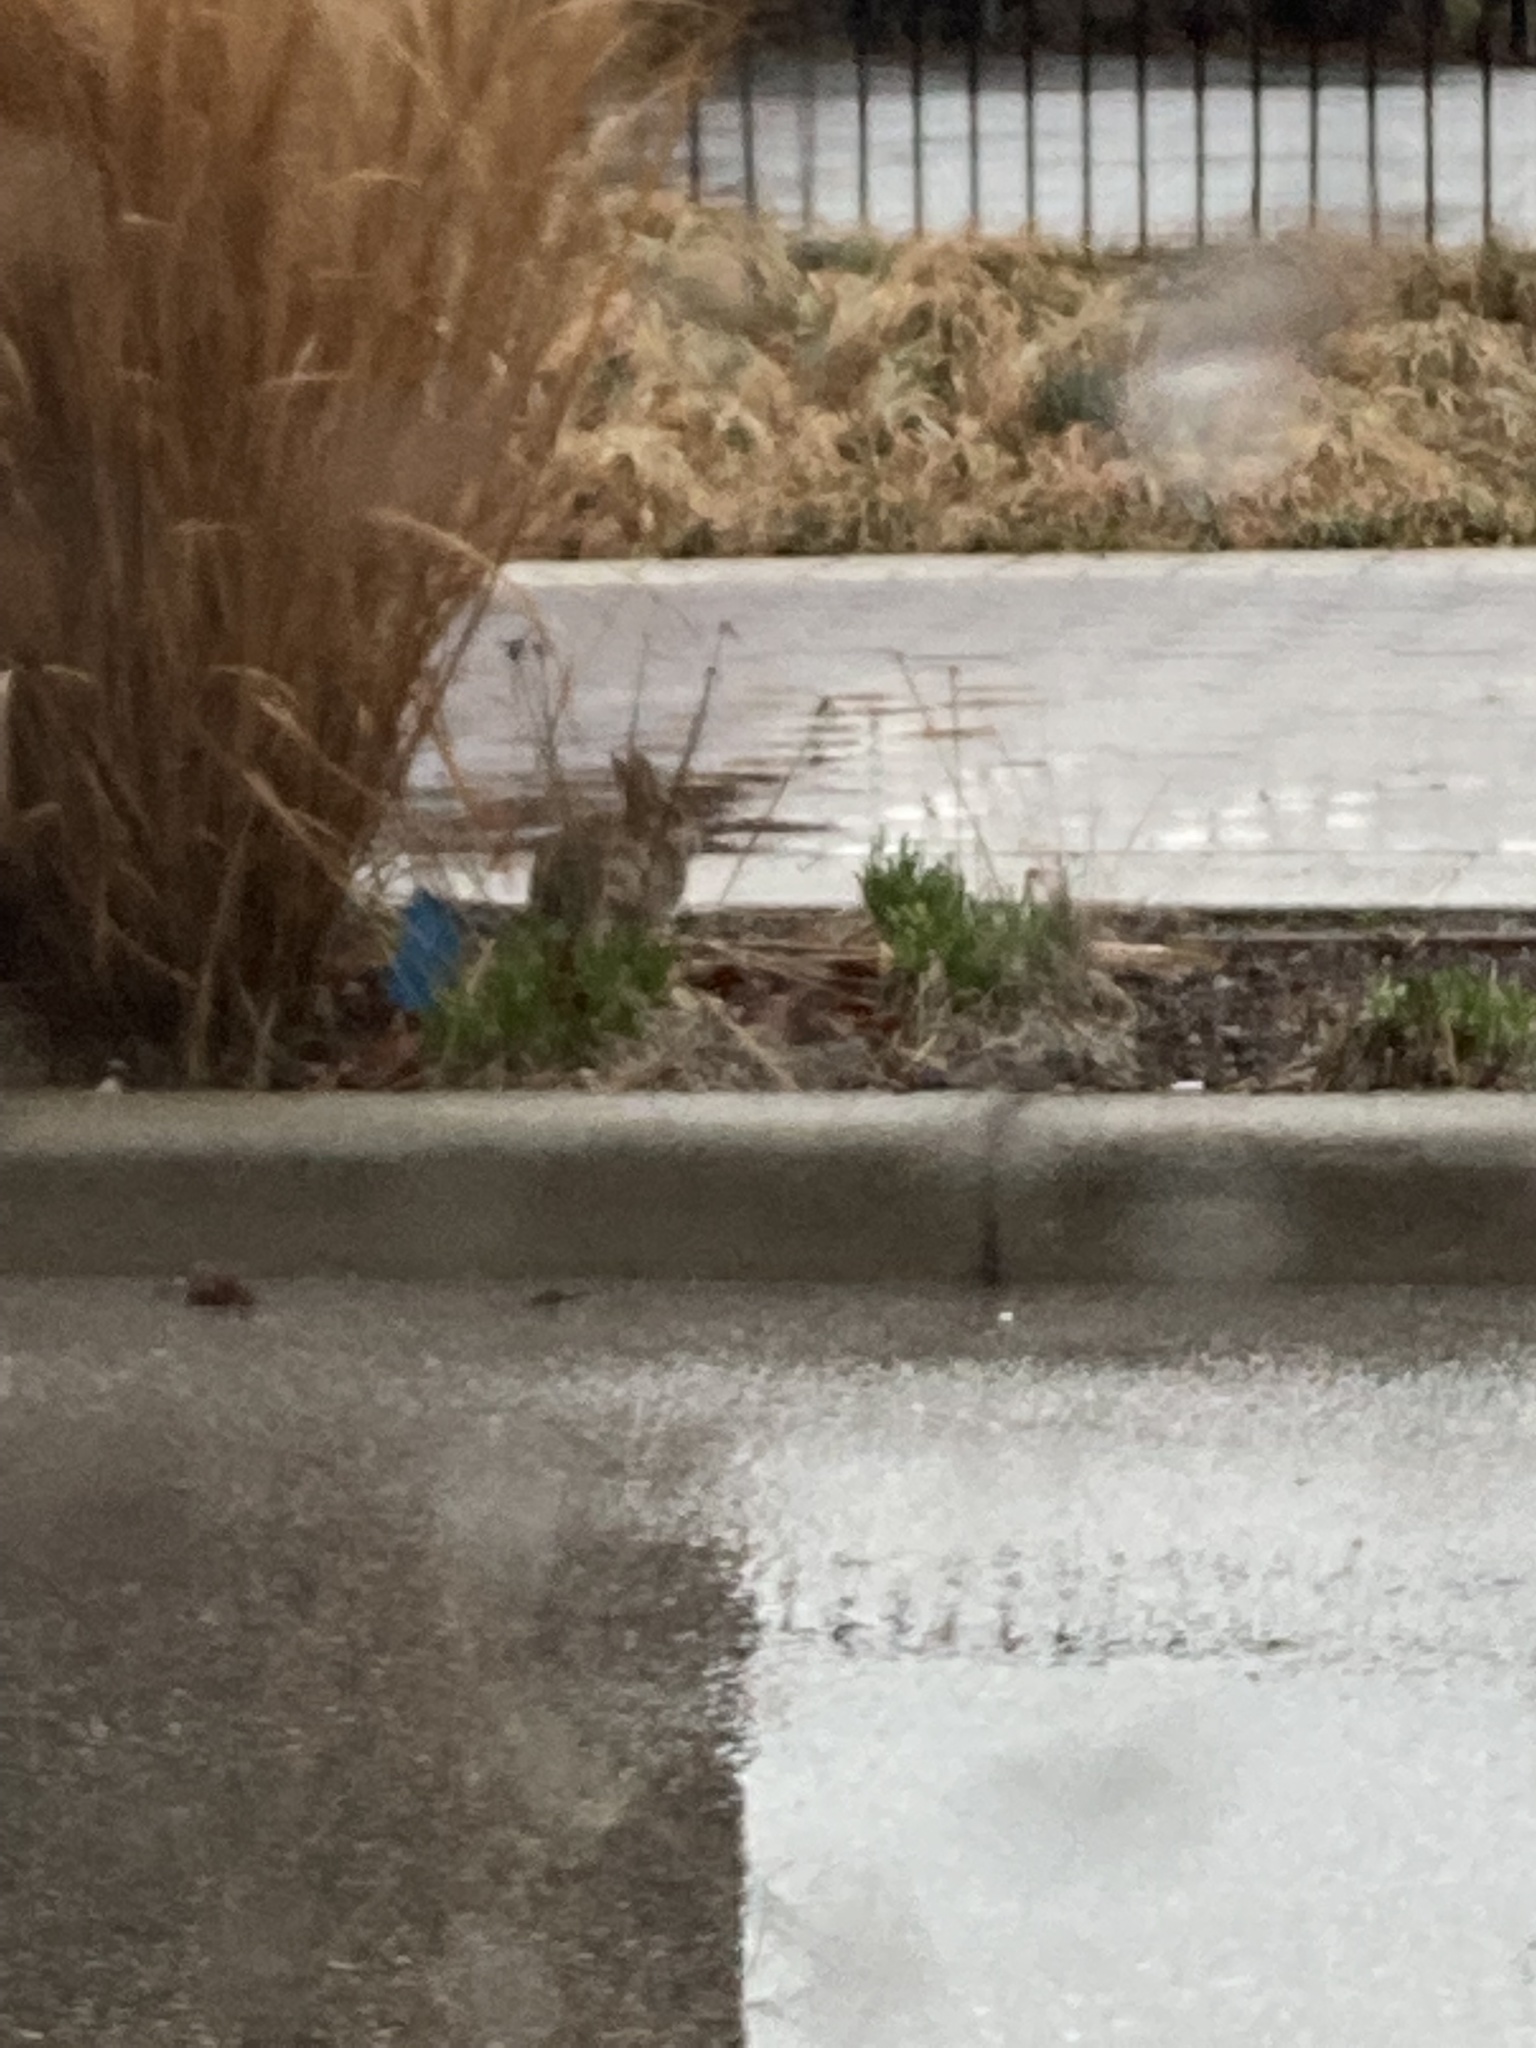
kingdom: Animalia
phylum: Chordata
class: Mammalia
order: Lagomorpha
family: Leporidae
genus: Sylvilagus
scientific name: Sylvilagus floridanus
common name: Eastern cottontail
